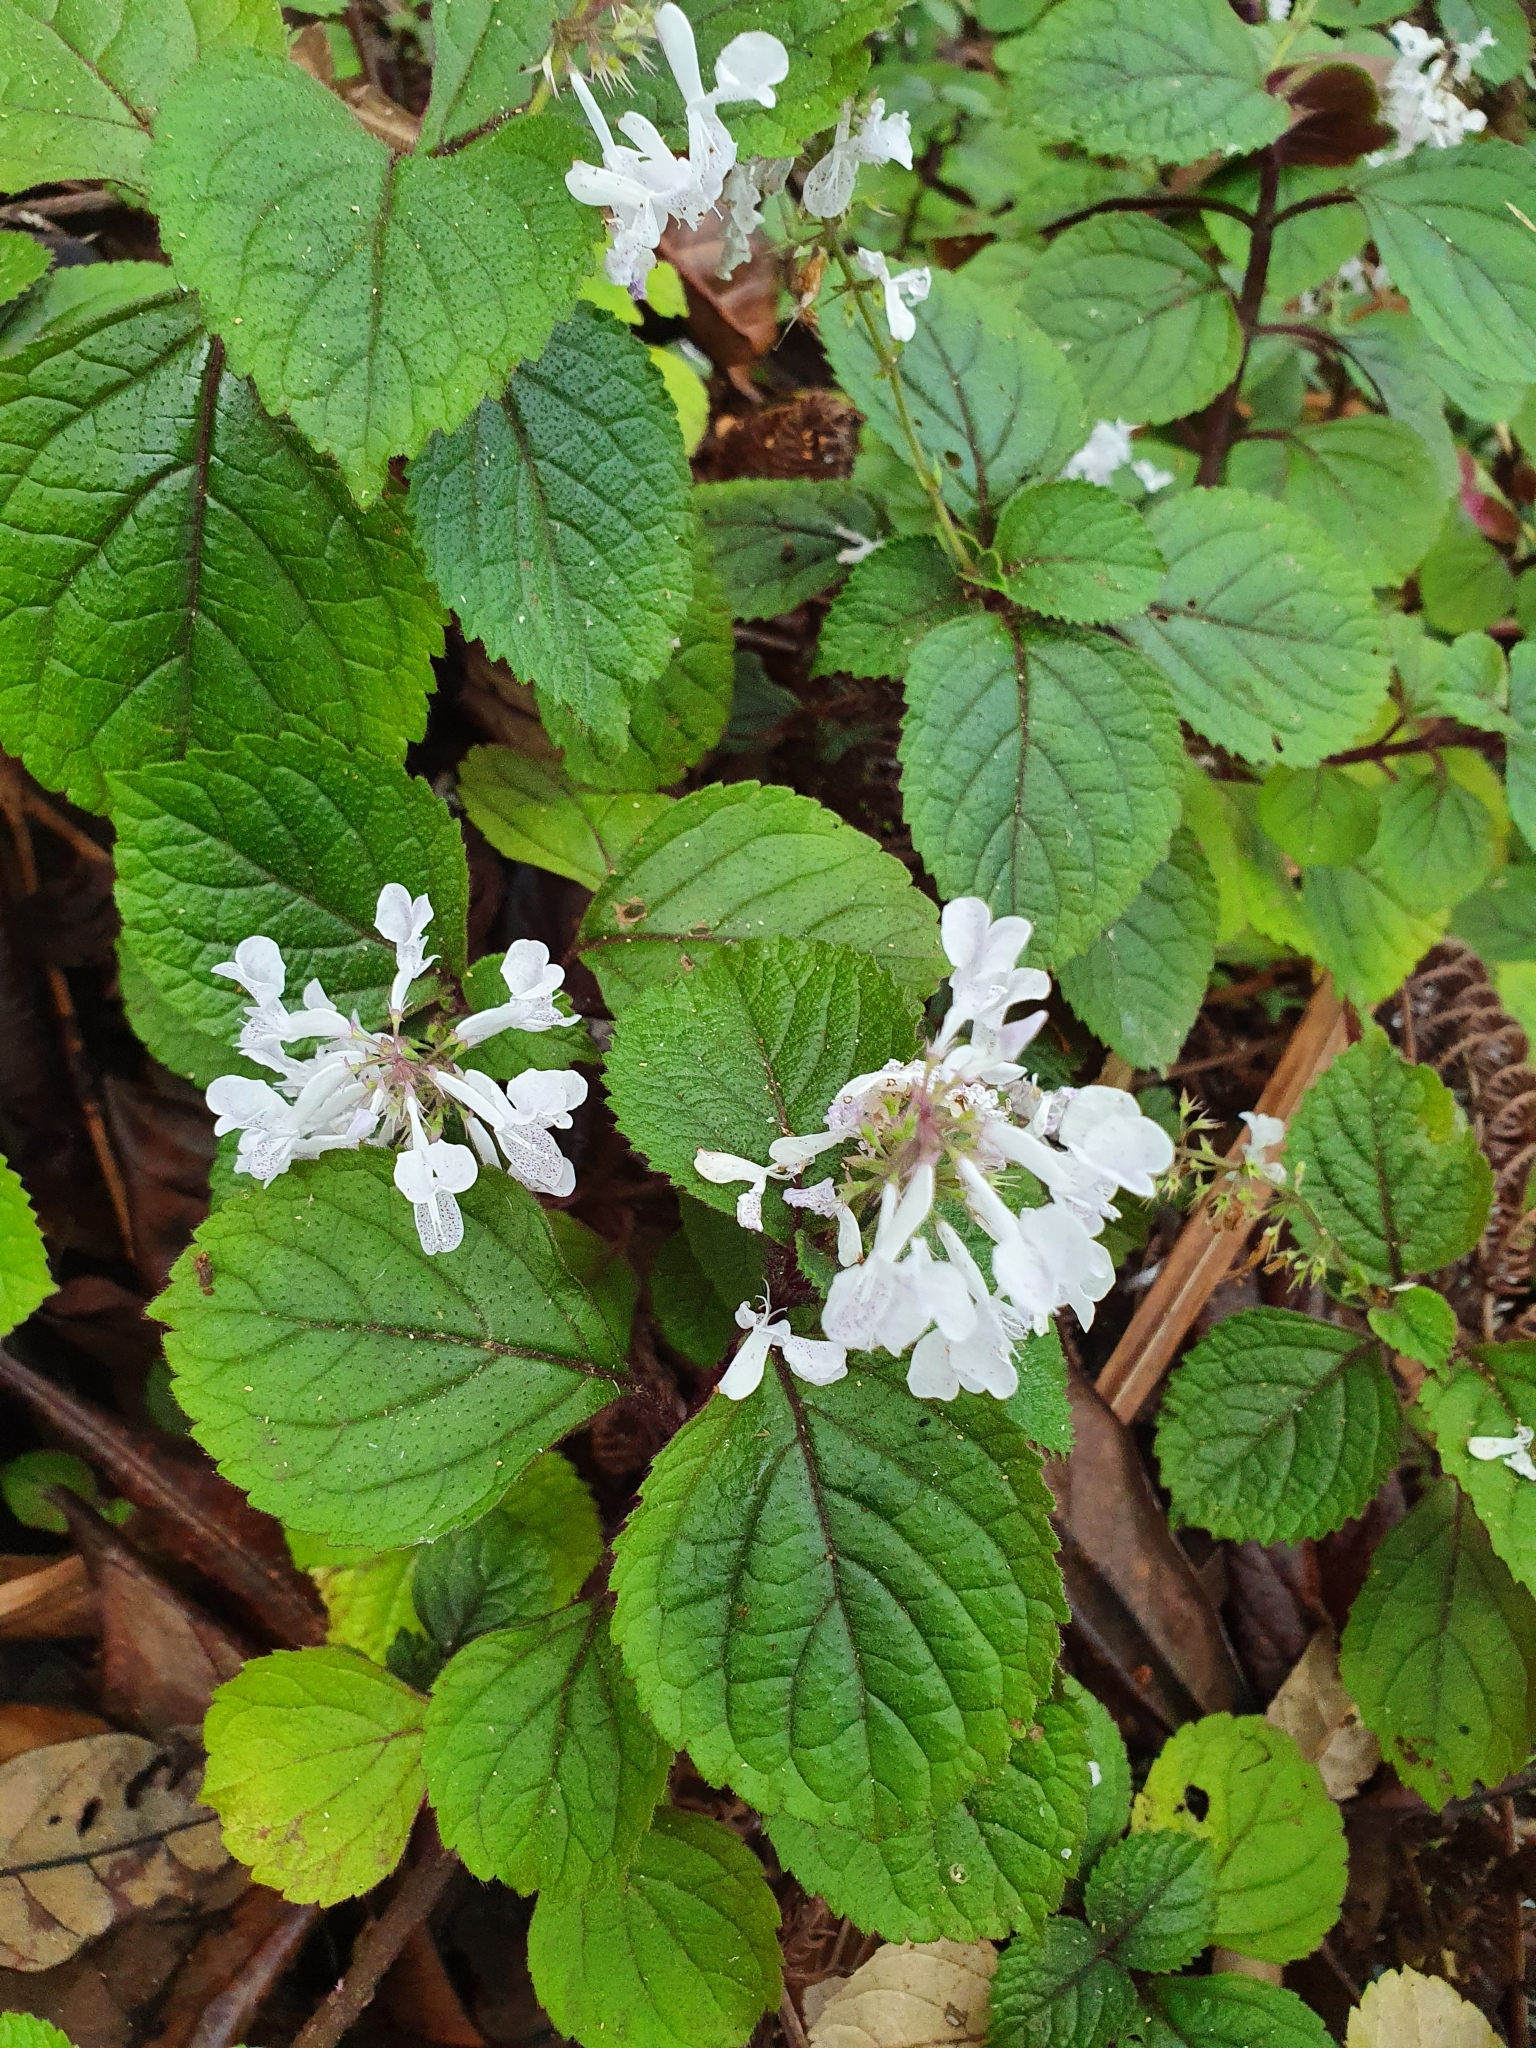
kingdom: Plantae
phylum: Tracheophyta
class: Magnoliopsida
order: Lamiales
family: Lamiaceae
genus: Plectranthus
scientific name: Plectranthus ciliatus
